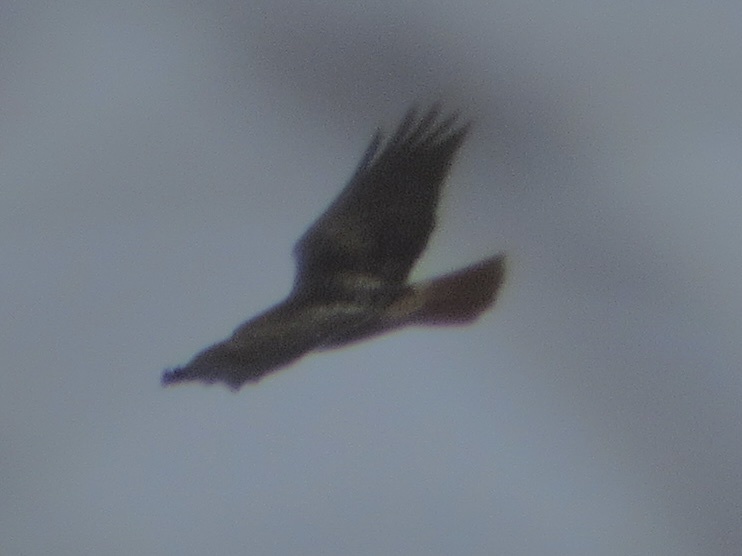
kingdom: Animalia
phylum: Chordata
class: Aves
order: Accipitriformes
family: Accipitridae
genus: Buteo
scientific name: Buteo jamaicensis
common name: Red-tailed hawk
